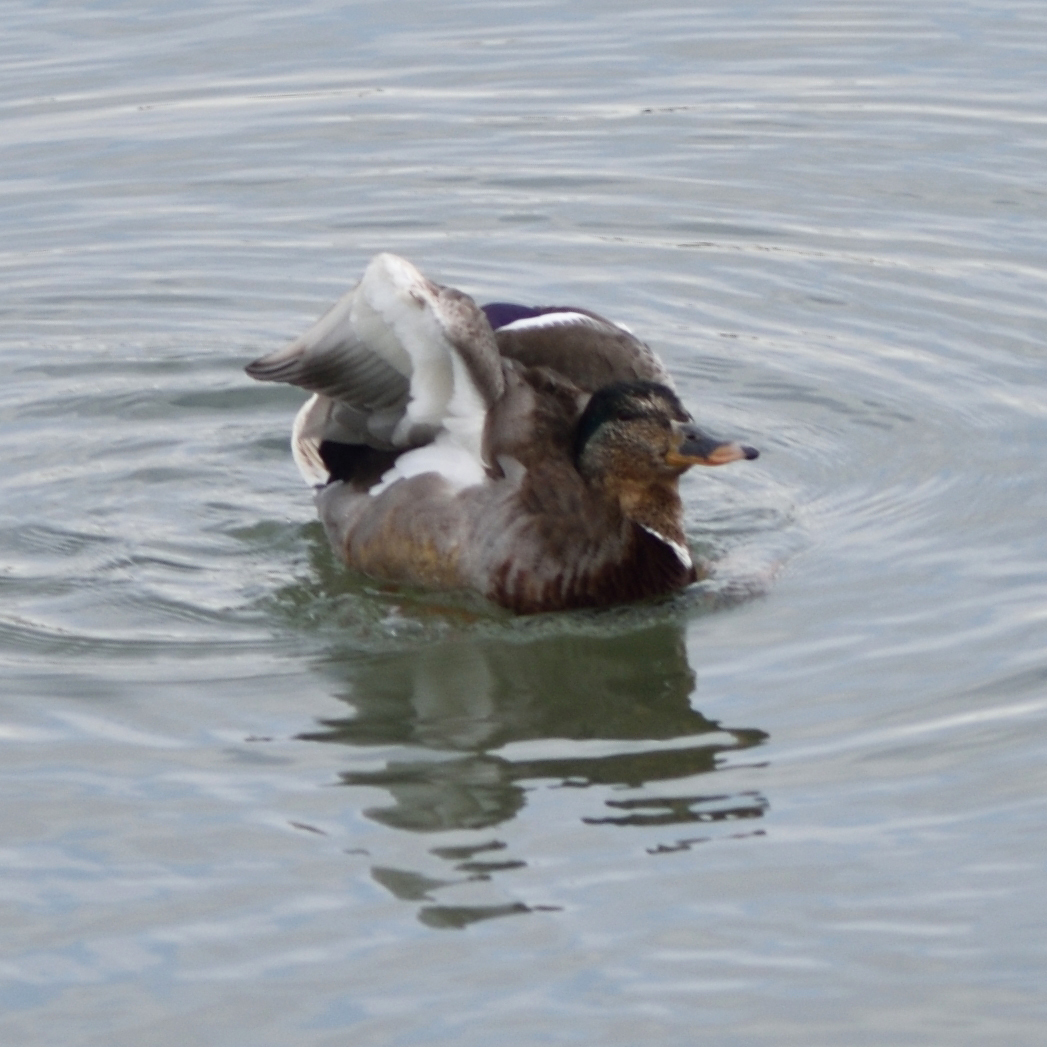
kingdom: Animalia
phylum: Chordata
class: Aves
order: Anseriformes
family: Anatidae
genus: Anas
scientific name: Anas platyrhynchos
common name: Mallard
